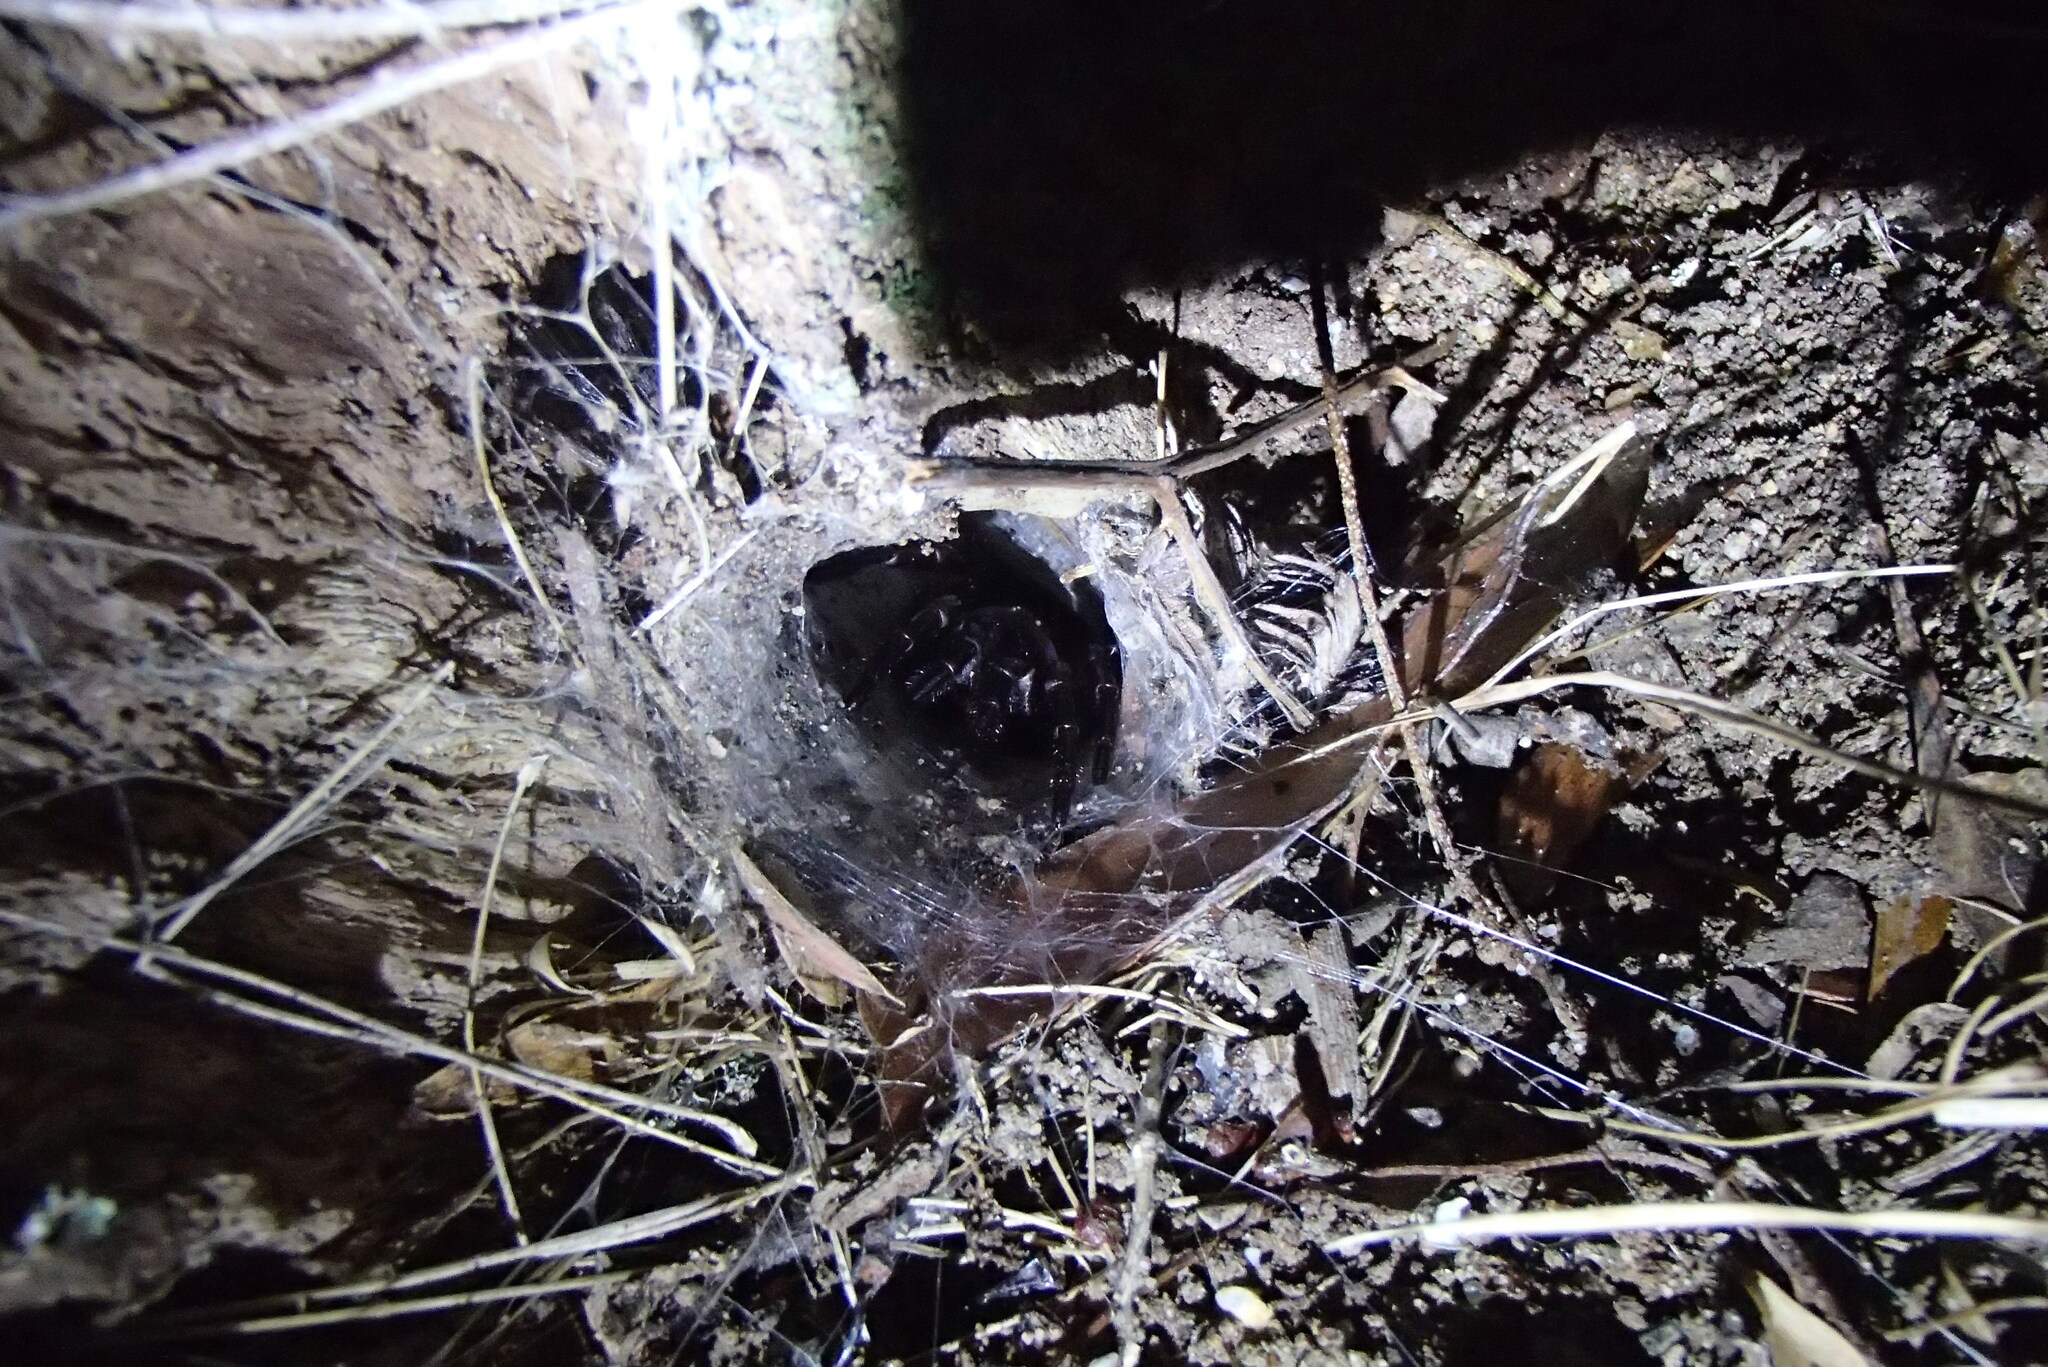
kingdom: Animalia
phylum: Arthropoda
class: Arachnida
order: Araneae
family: Atracidae
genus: Hadronyche
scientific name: Hadronyche versuta
